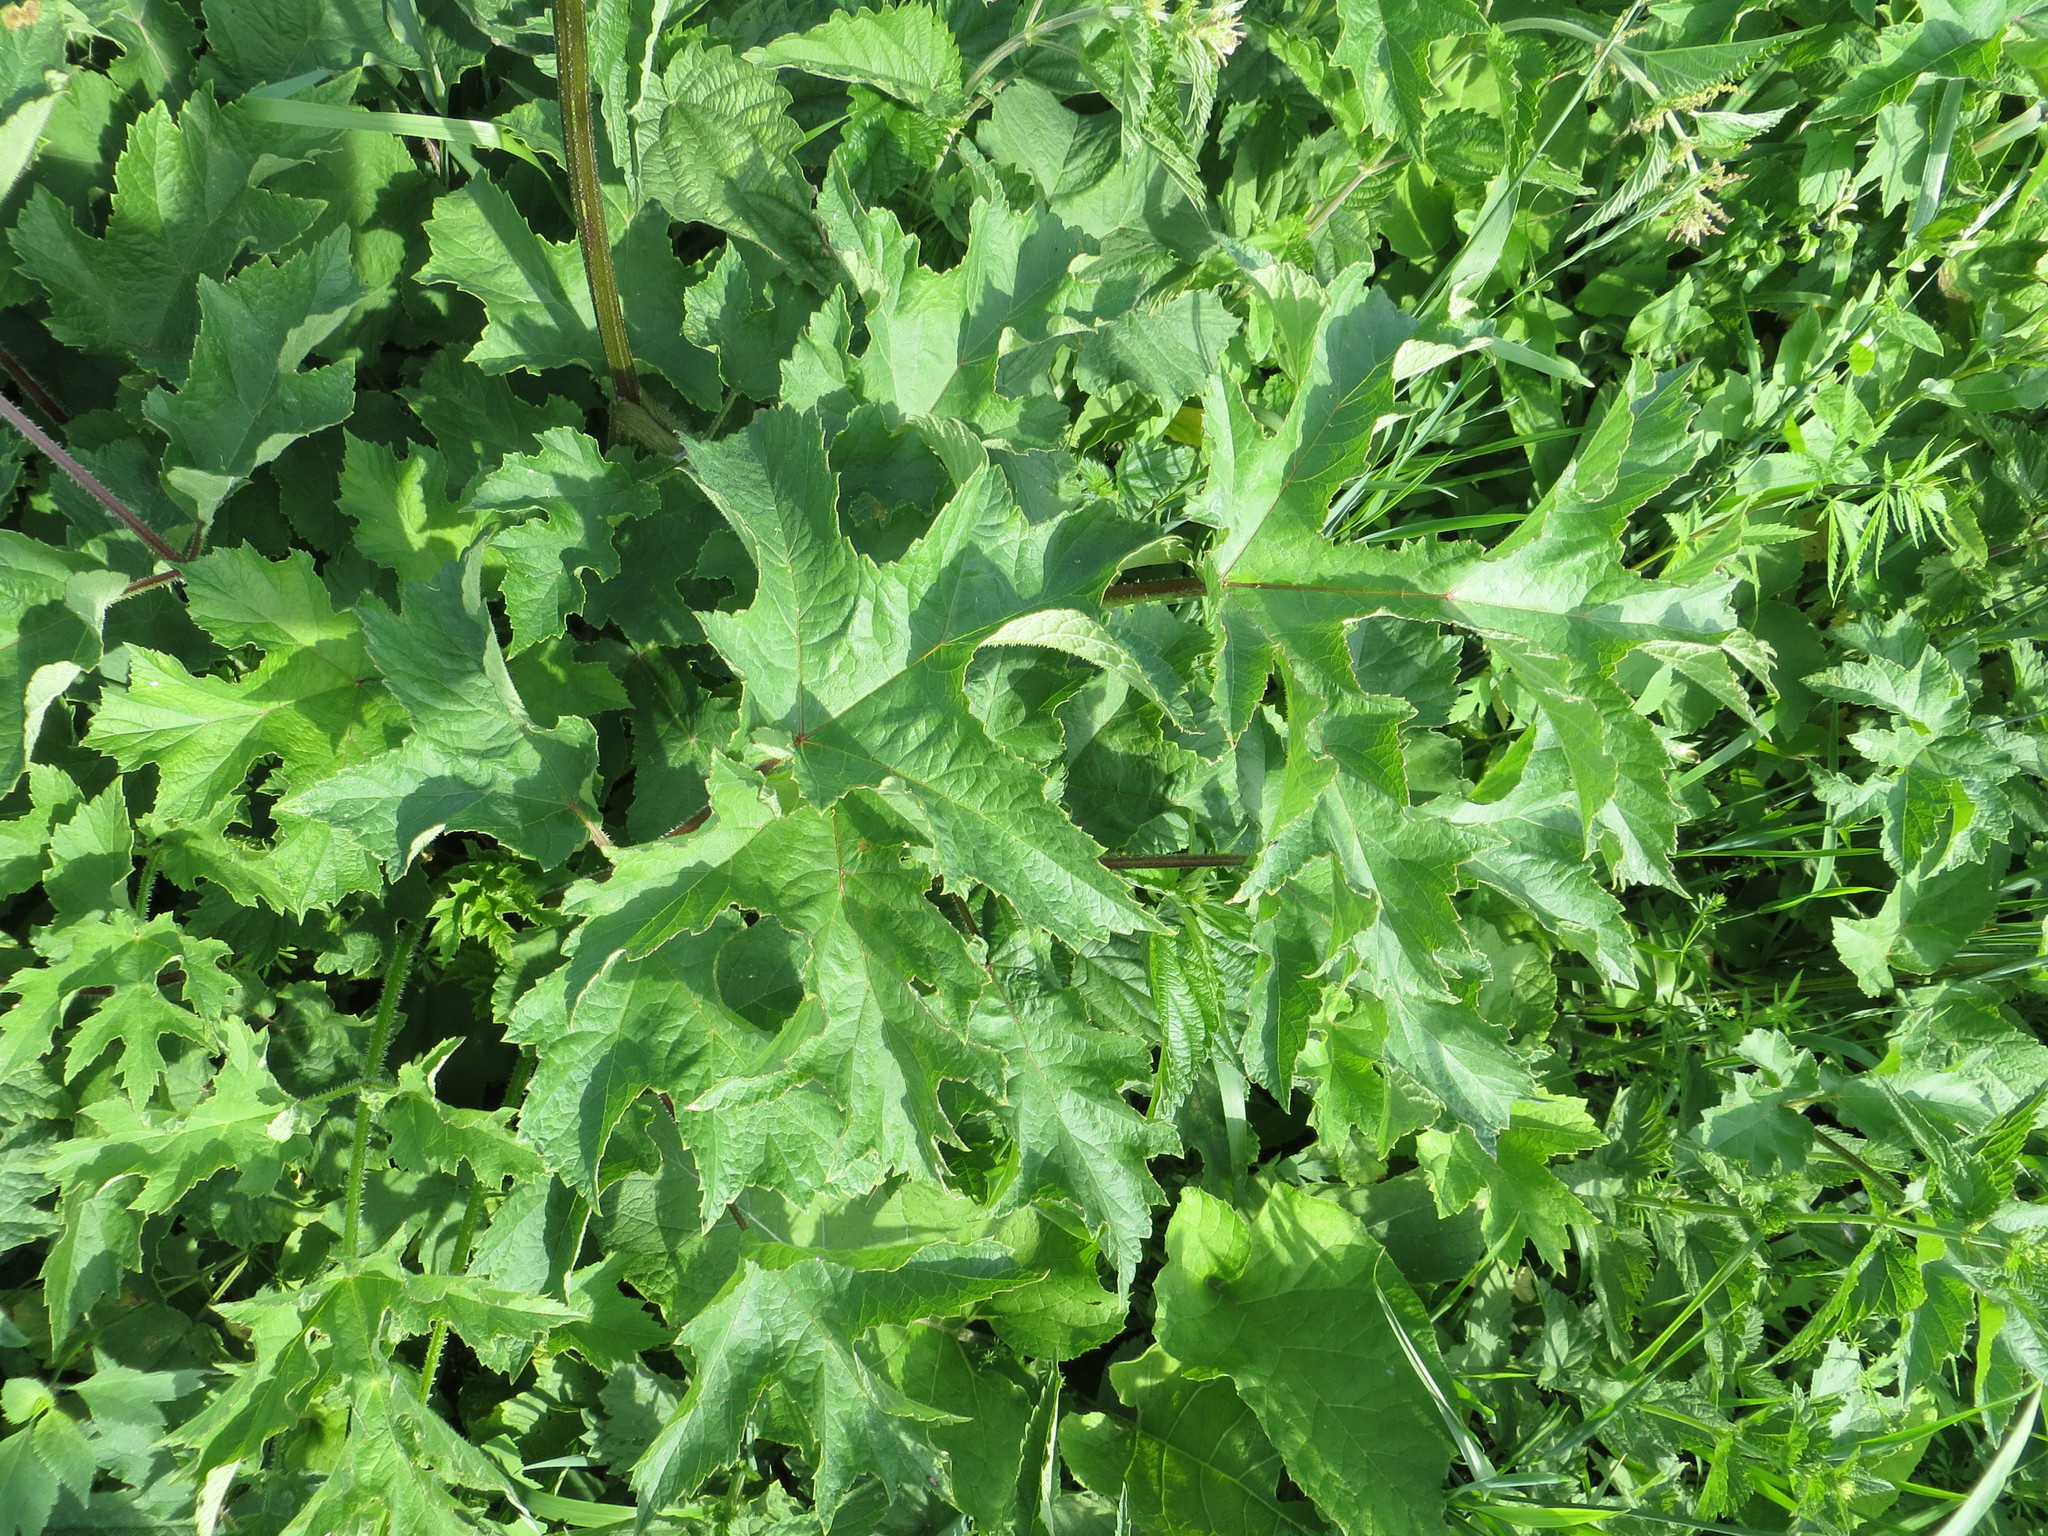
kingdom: Plantae
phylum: Tracheophyta
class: Magnoliopsida
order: Apiales
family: Apiaceae
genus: Heracleum
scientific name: Heracleum sphondylium
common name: Hogweed
